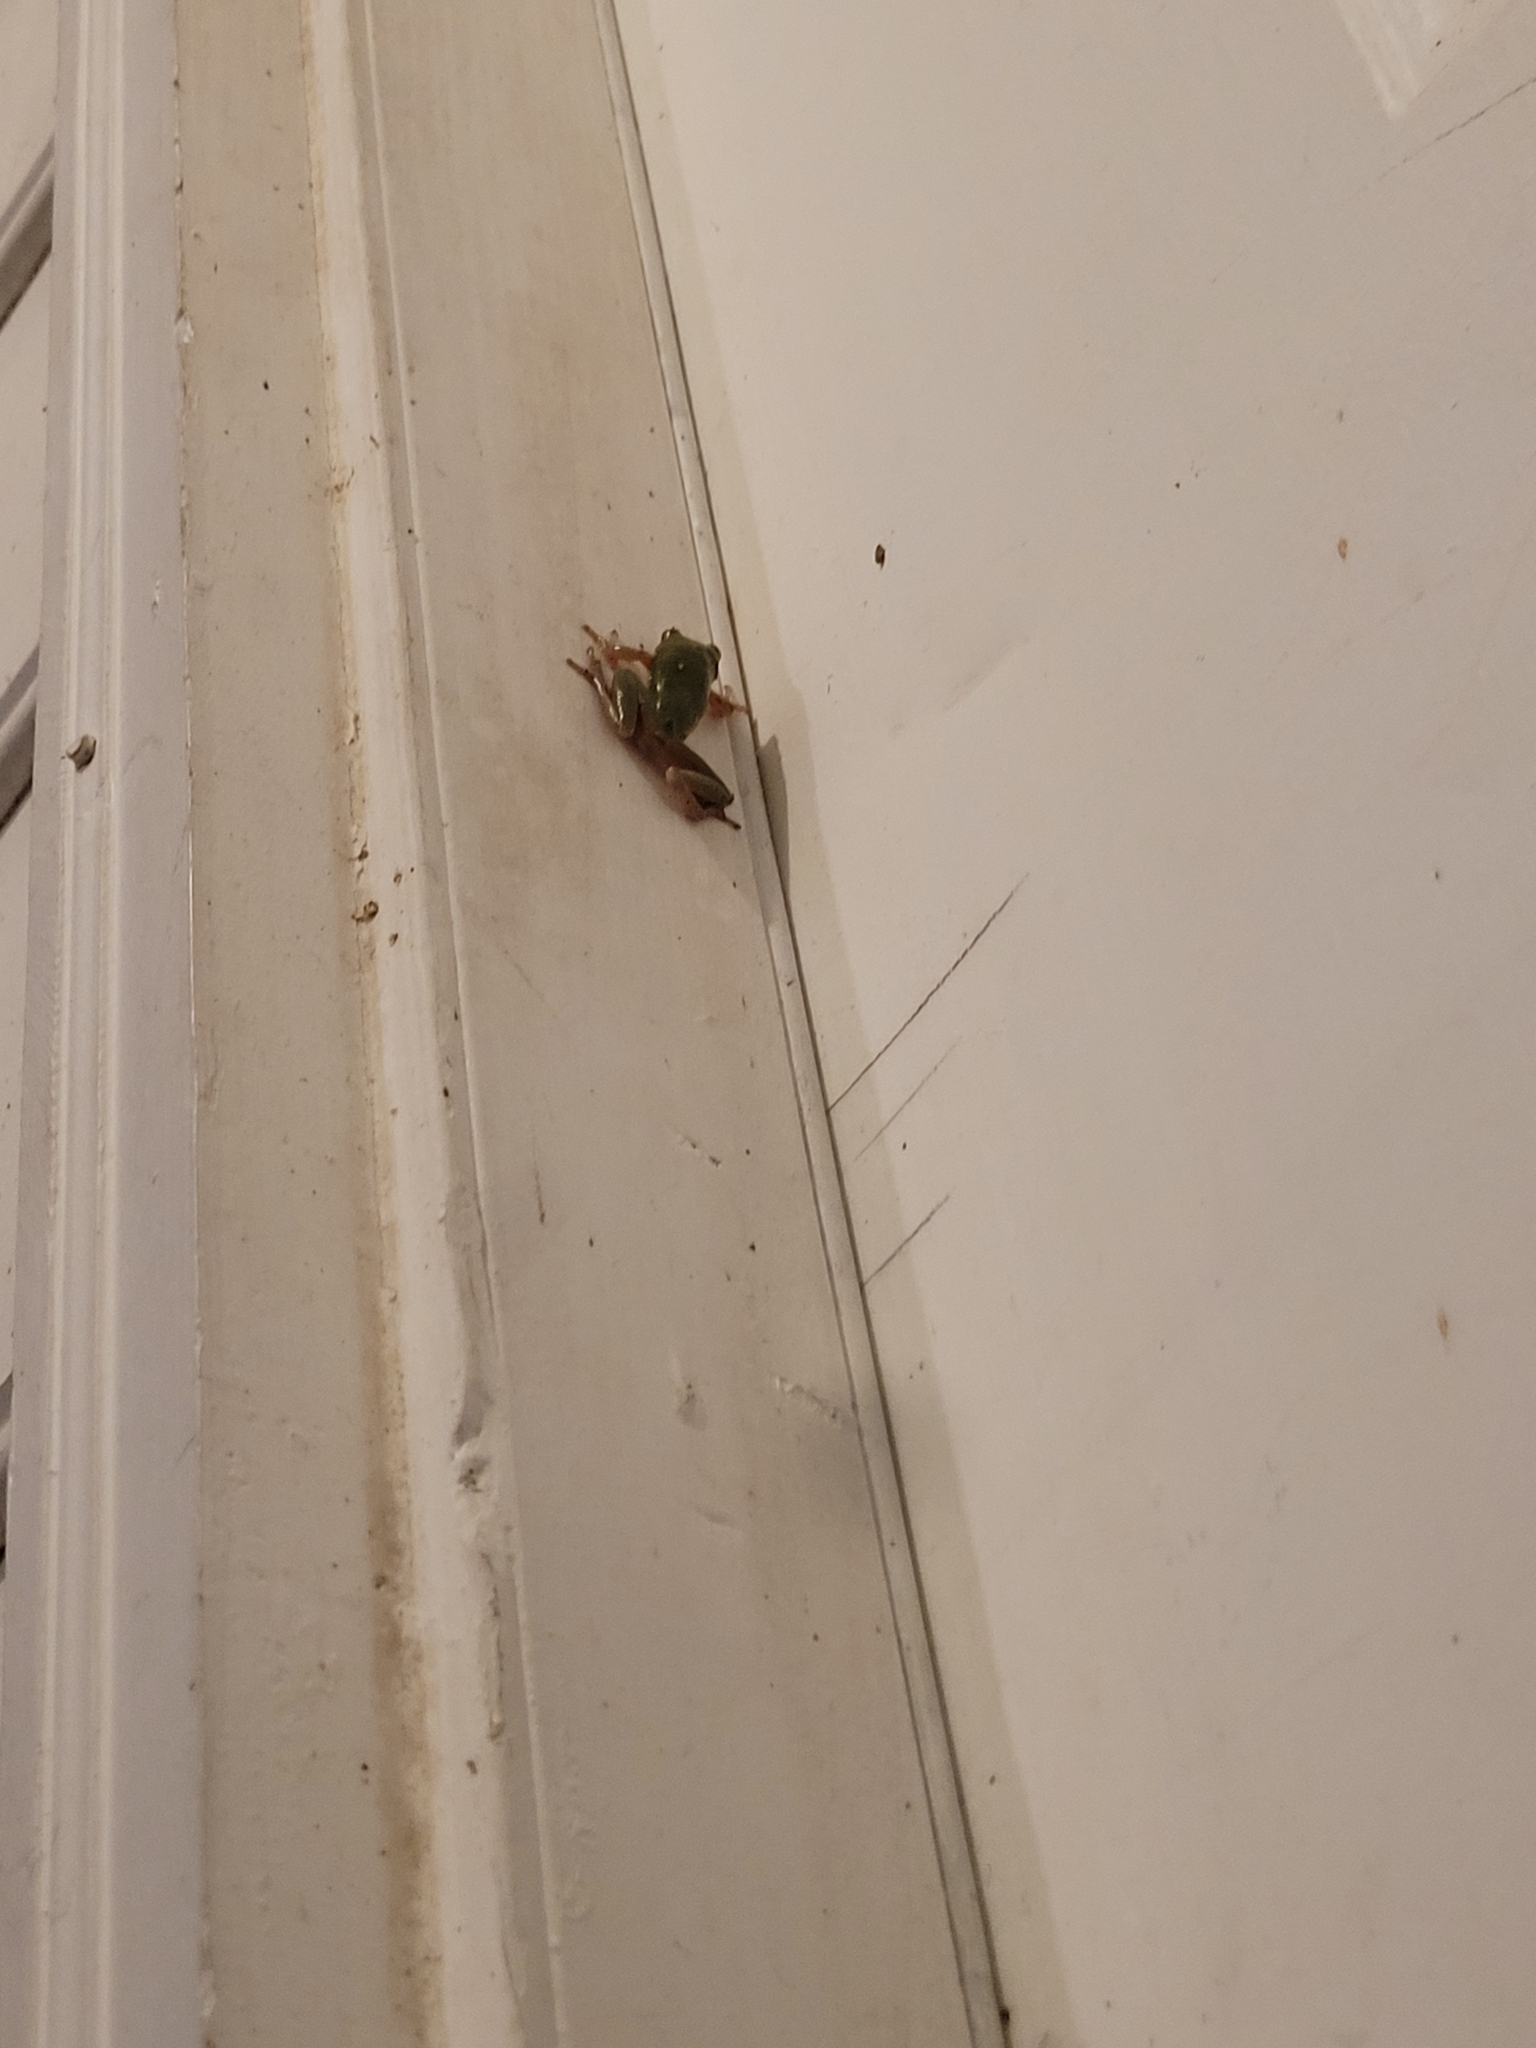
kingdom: Animalia
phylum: Chordata
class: Amphibia
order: Anura
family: Hylidae
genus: Dryophytes
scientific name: Dryophytes squirellus
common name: Squirrel treefrog
